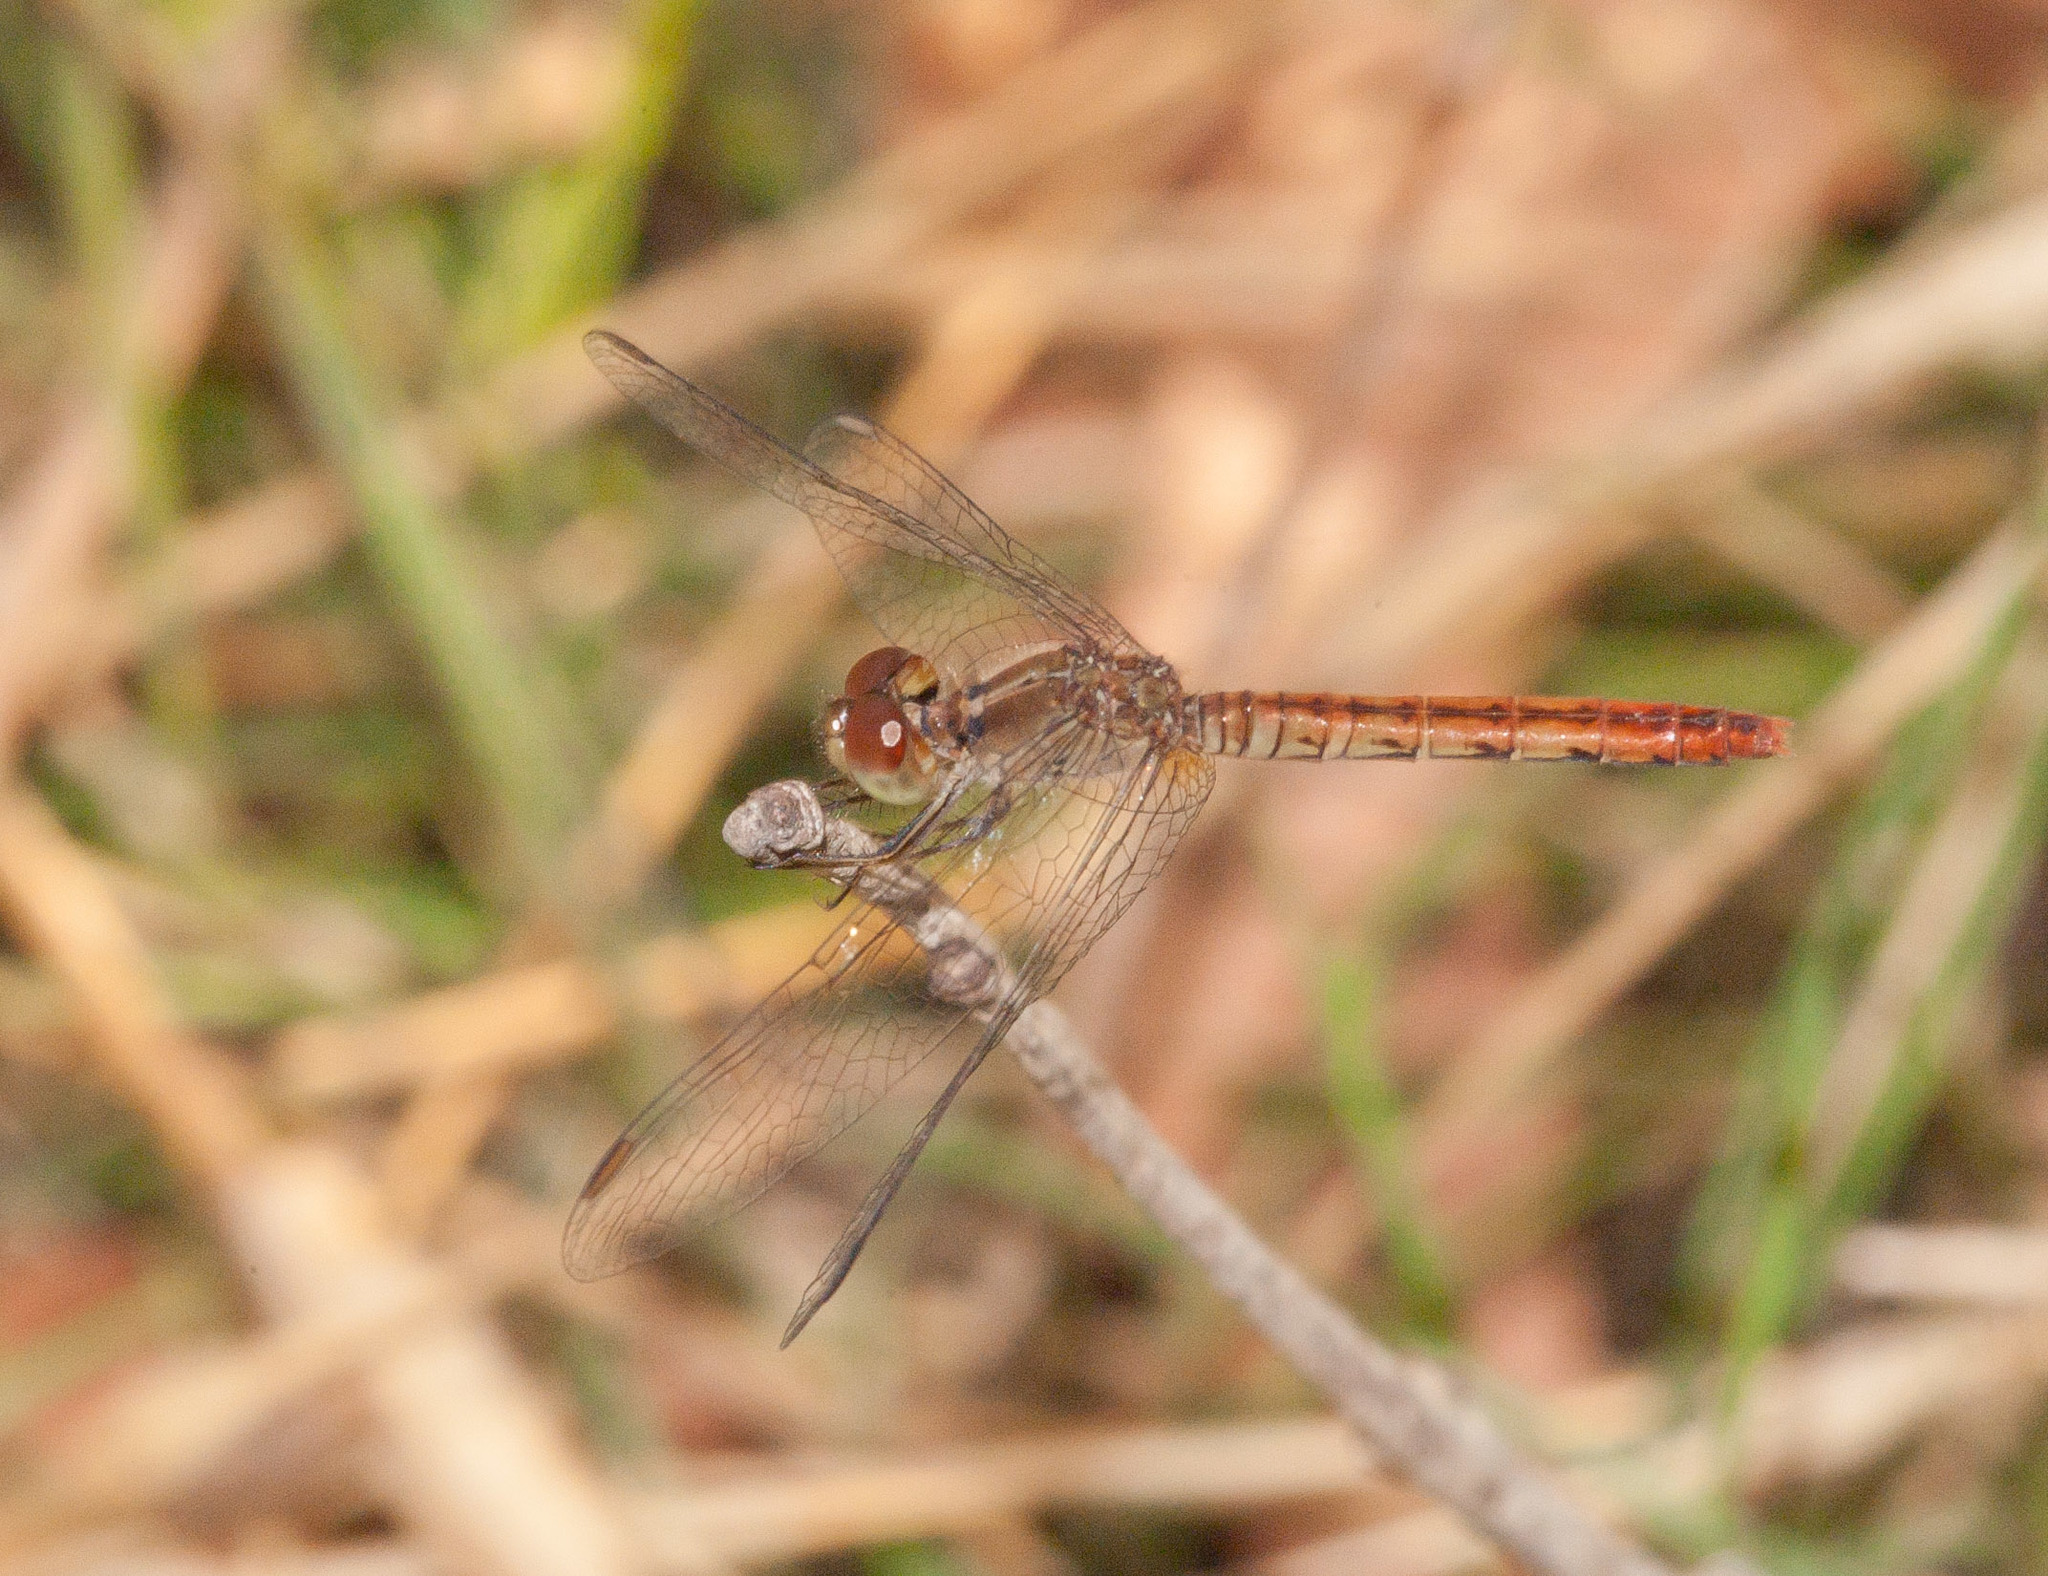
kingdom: Animalia
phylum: Arthropoda
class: Insecta
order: Odonata
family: Libellulidae
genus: Nannodiplax
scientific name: Nannodiplax rubra
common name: Pygmy percher
